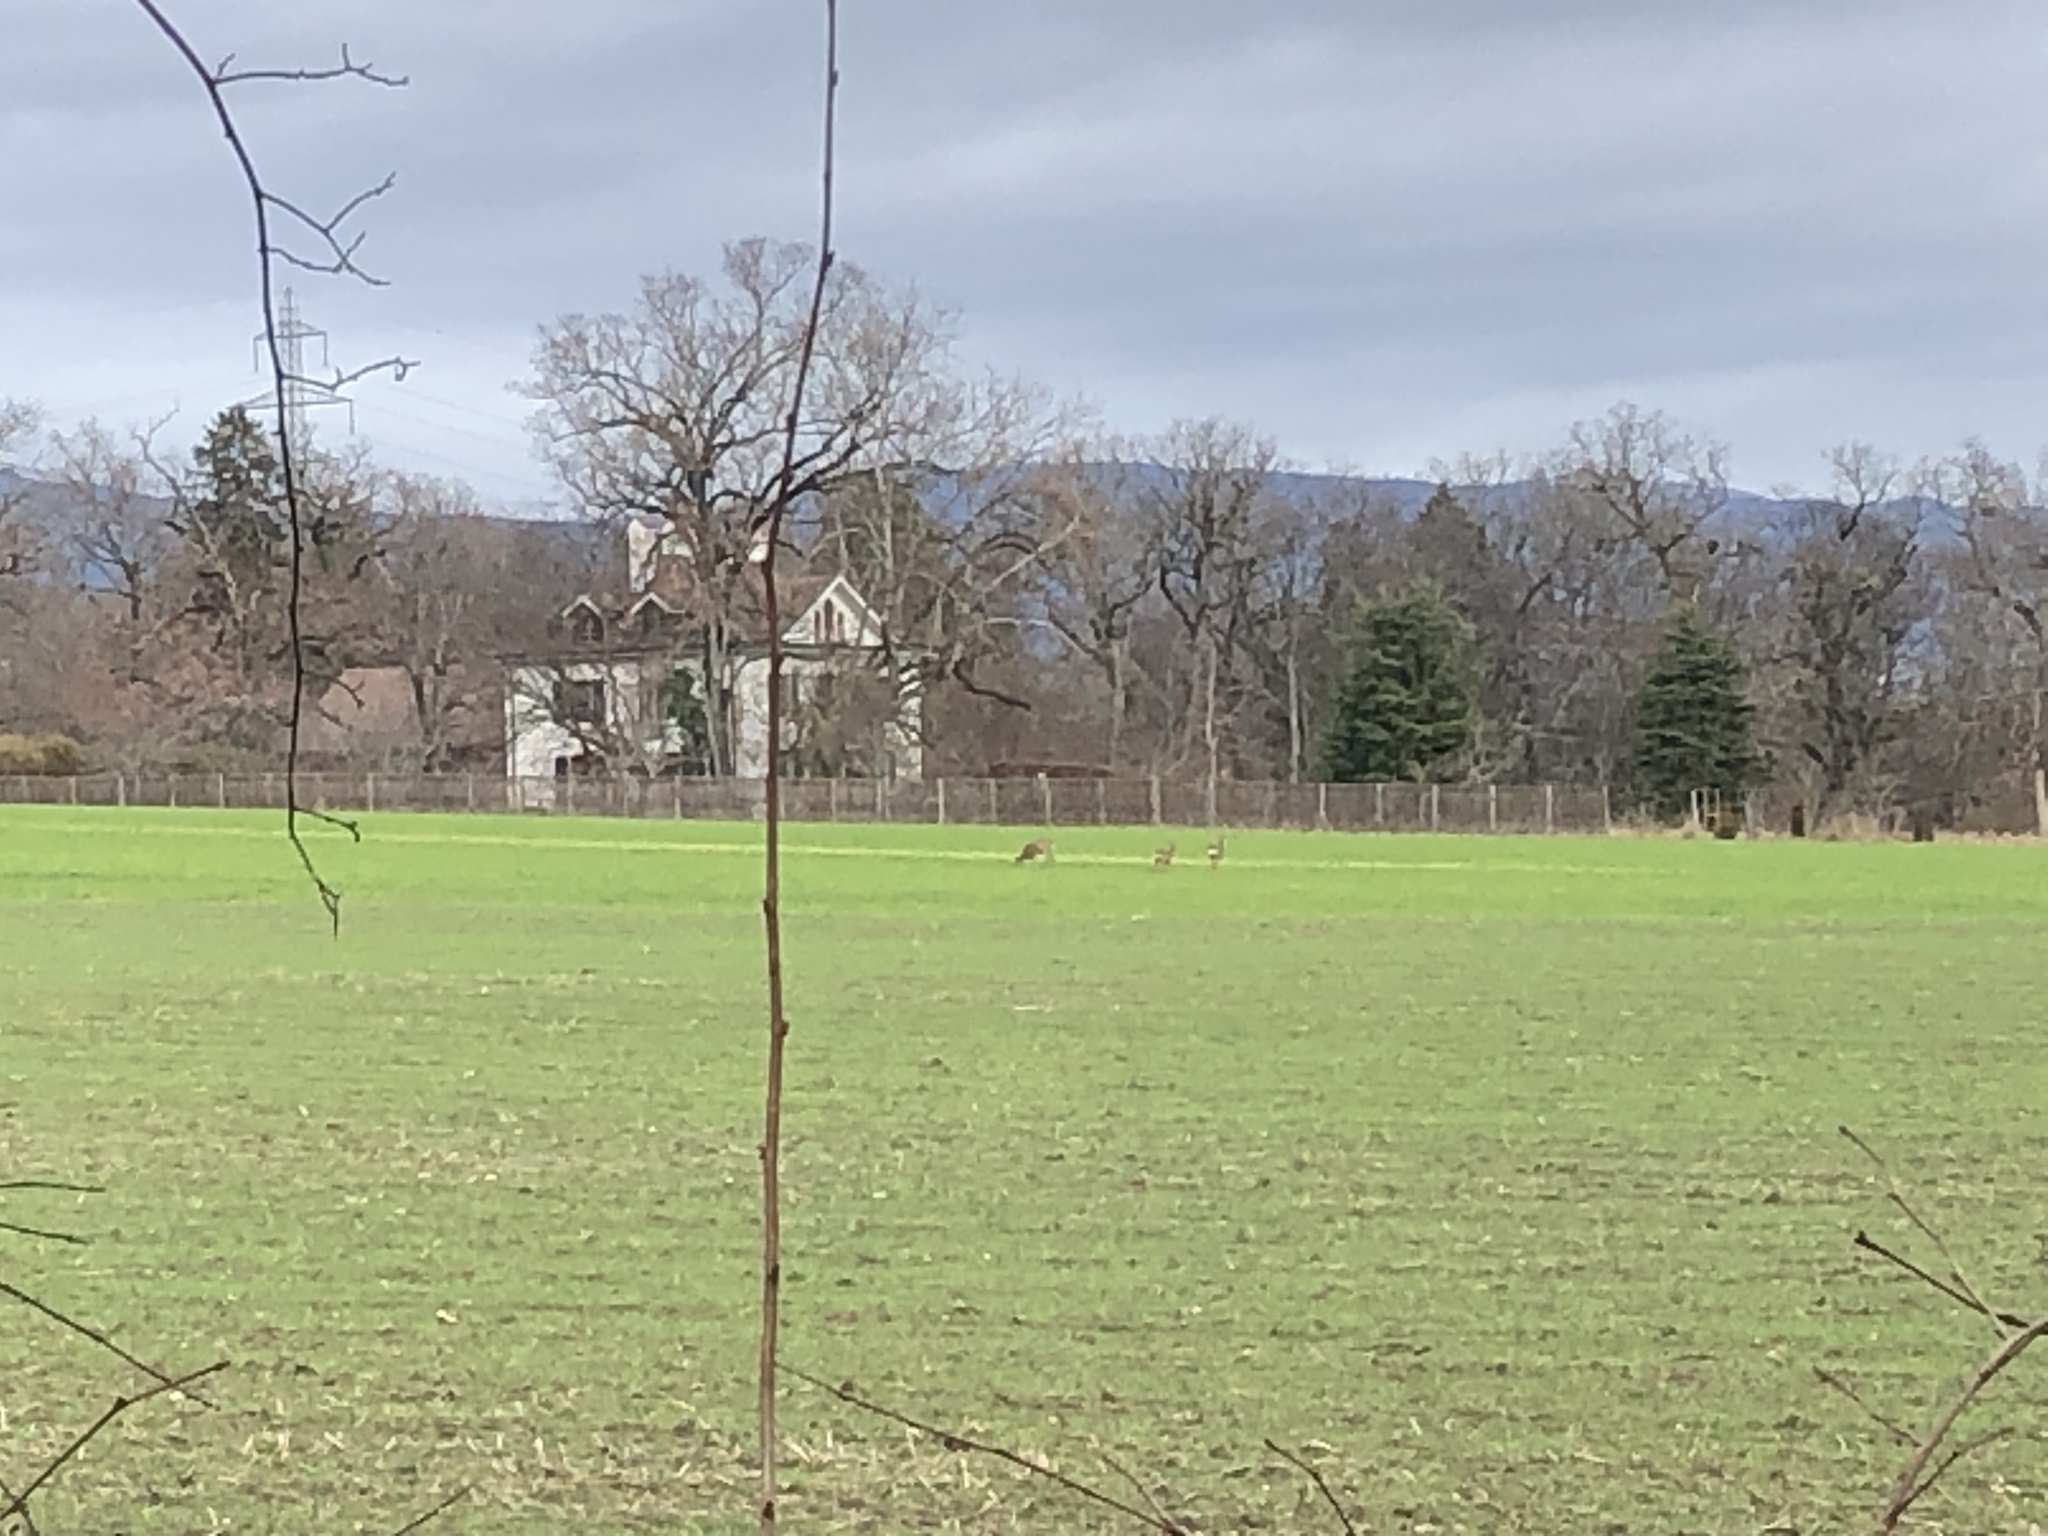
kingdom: Animalia
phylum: Chordata
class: Mammalia
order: Artiodactyla
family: Cervidae
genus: Capreolus
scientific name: Capreolus capreolus
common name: Western roe deer
